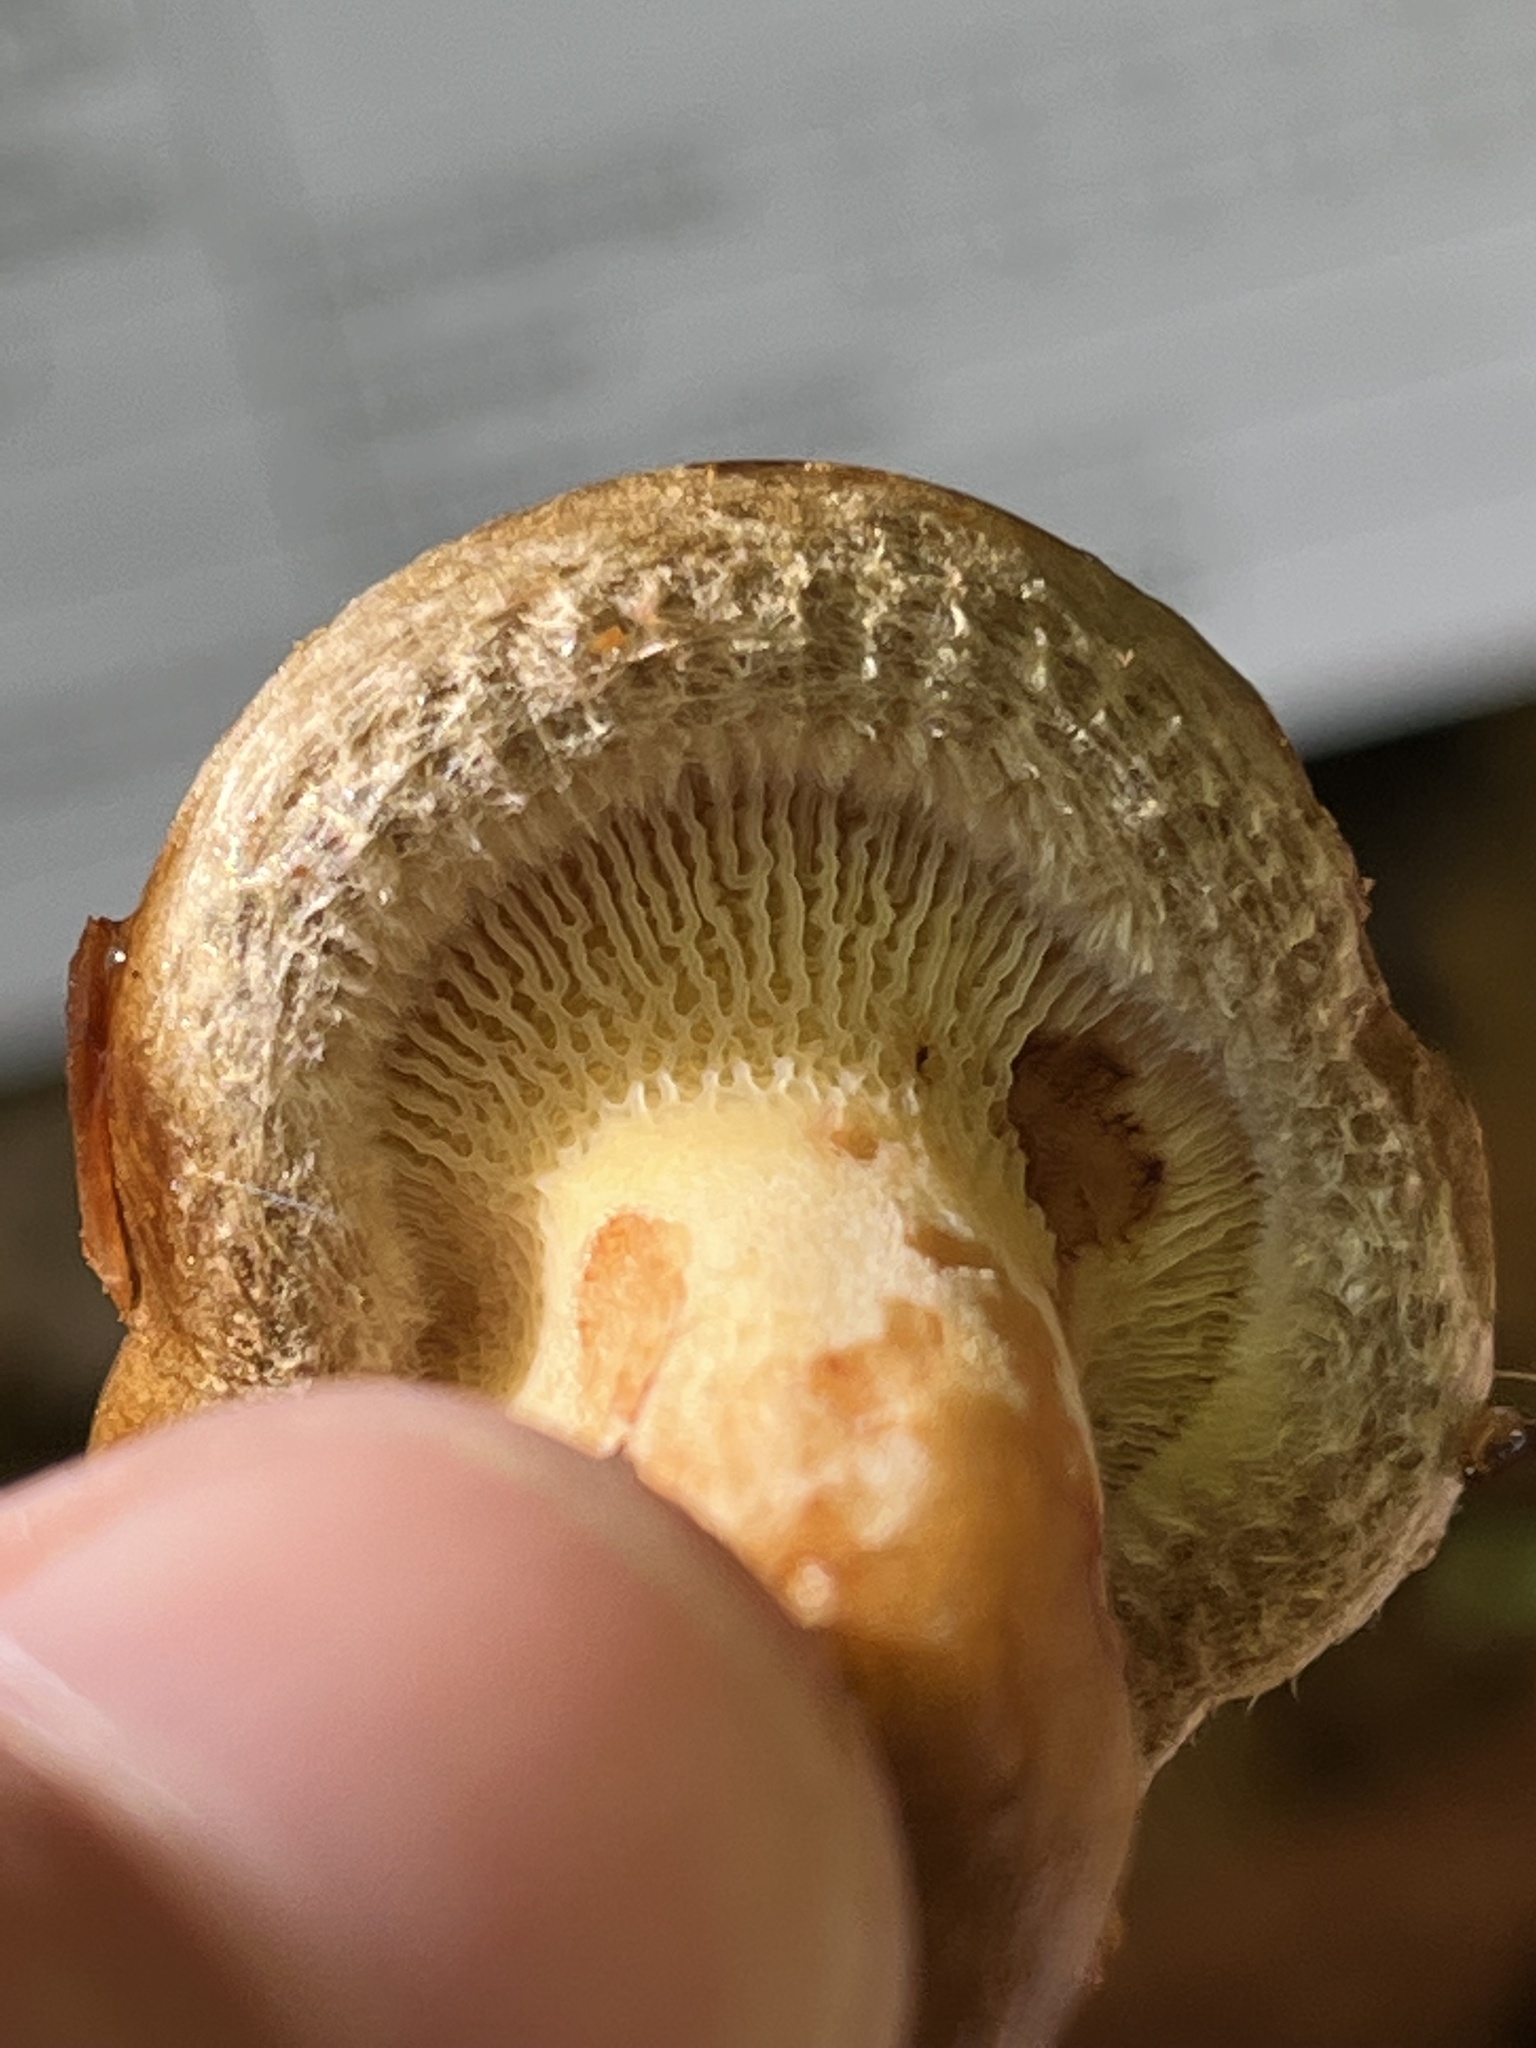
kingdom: Fungi
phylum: Basidiomycota
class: Agaricomycetes
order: Boletales
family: Paxillaceae
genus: Paxillus
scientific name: Paxillus involutus
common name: Brown roll rim
